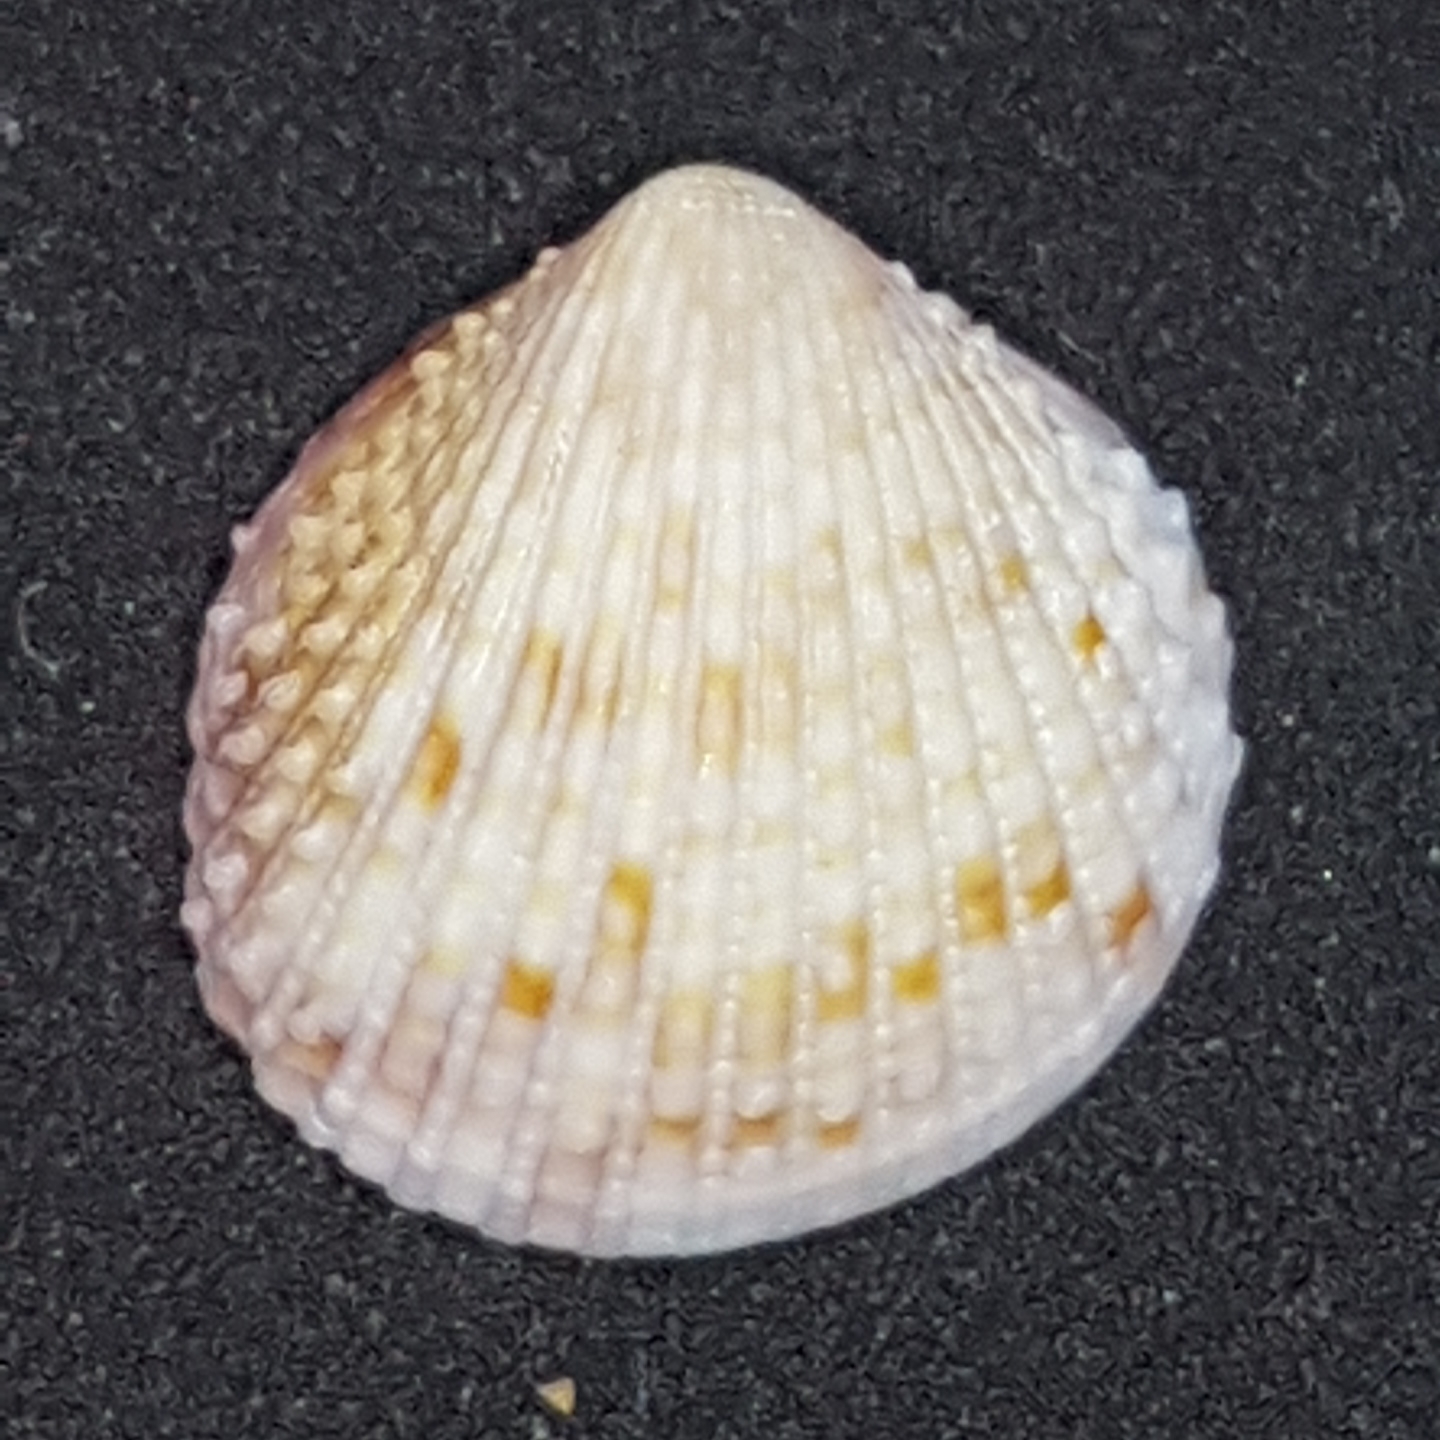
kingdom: Animalia
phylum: Mollusca
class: Bivalvia
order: Cardiida
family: Cardiidae
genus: Papillicardium
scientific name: Papillicardium papillosum
